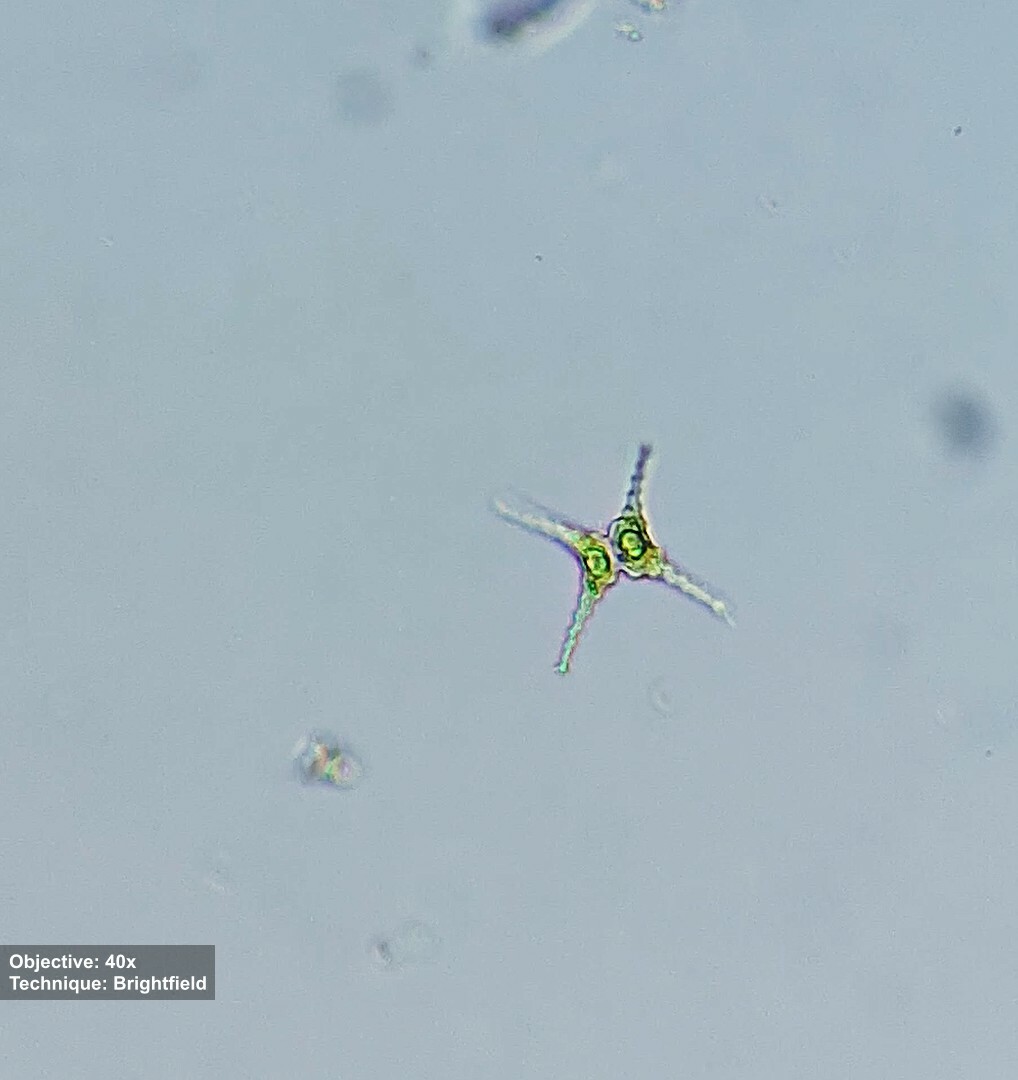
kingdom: Plantae
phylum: Charophyta
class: Conjugatophyceae
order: Desmidiales
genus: Staurastrum
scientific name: Staurastrum tetracerum
